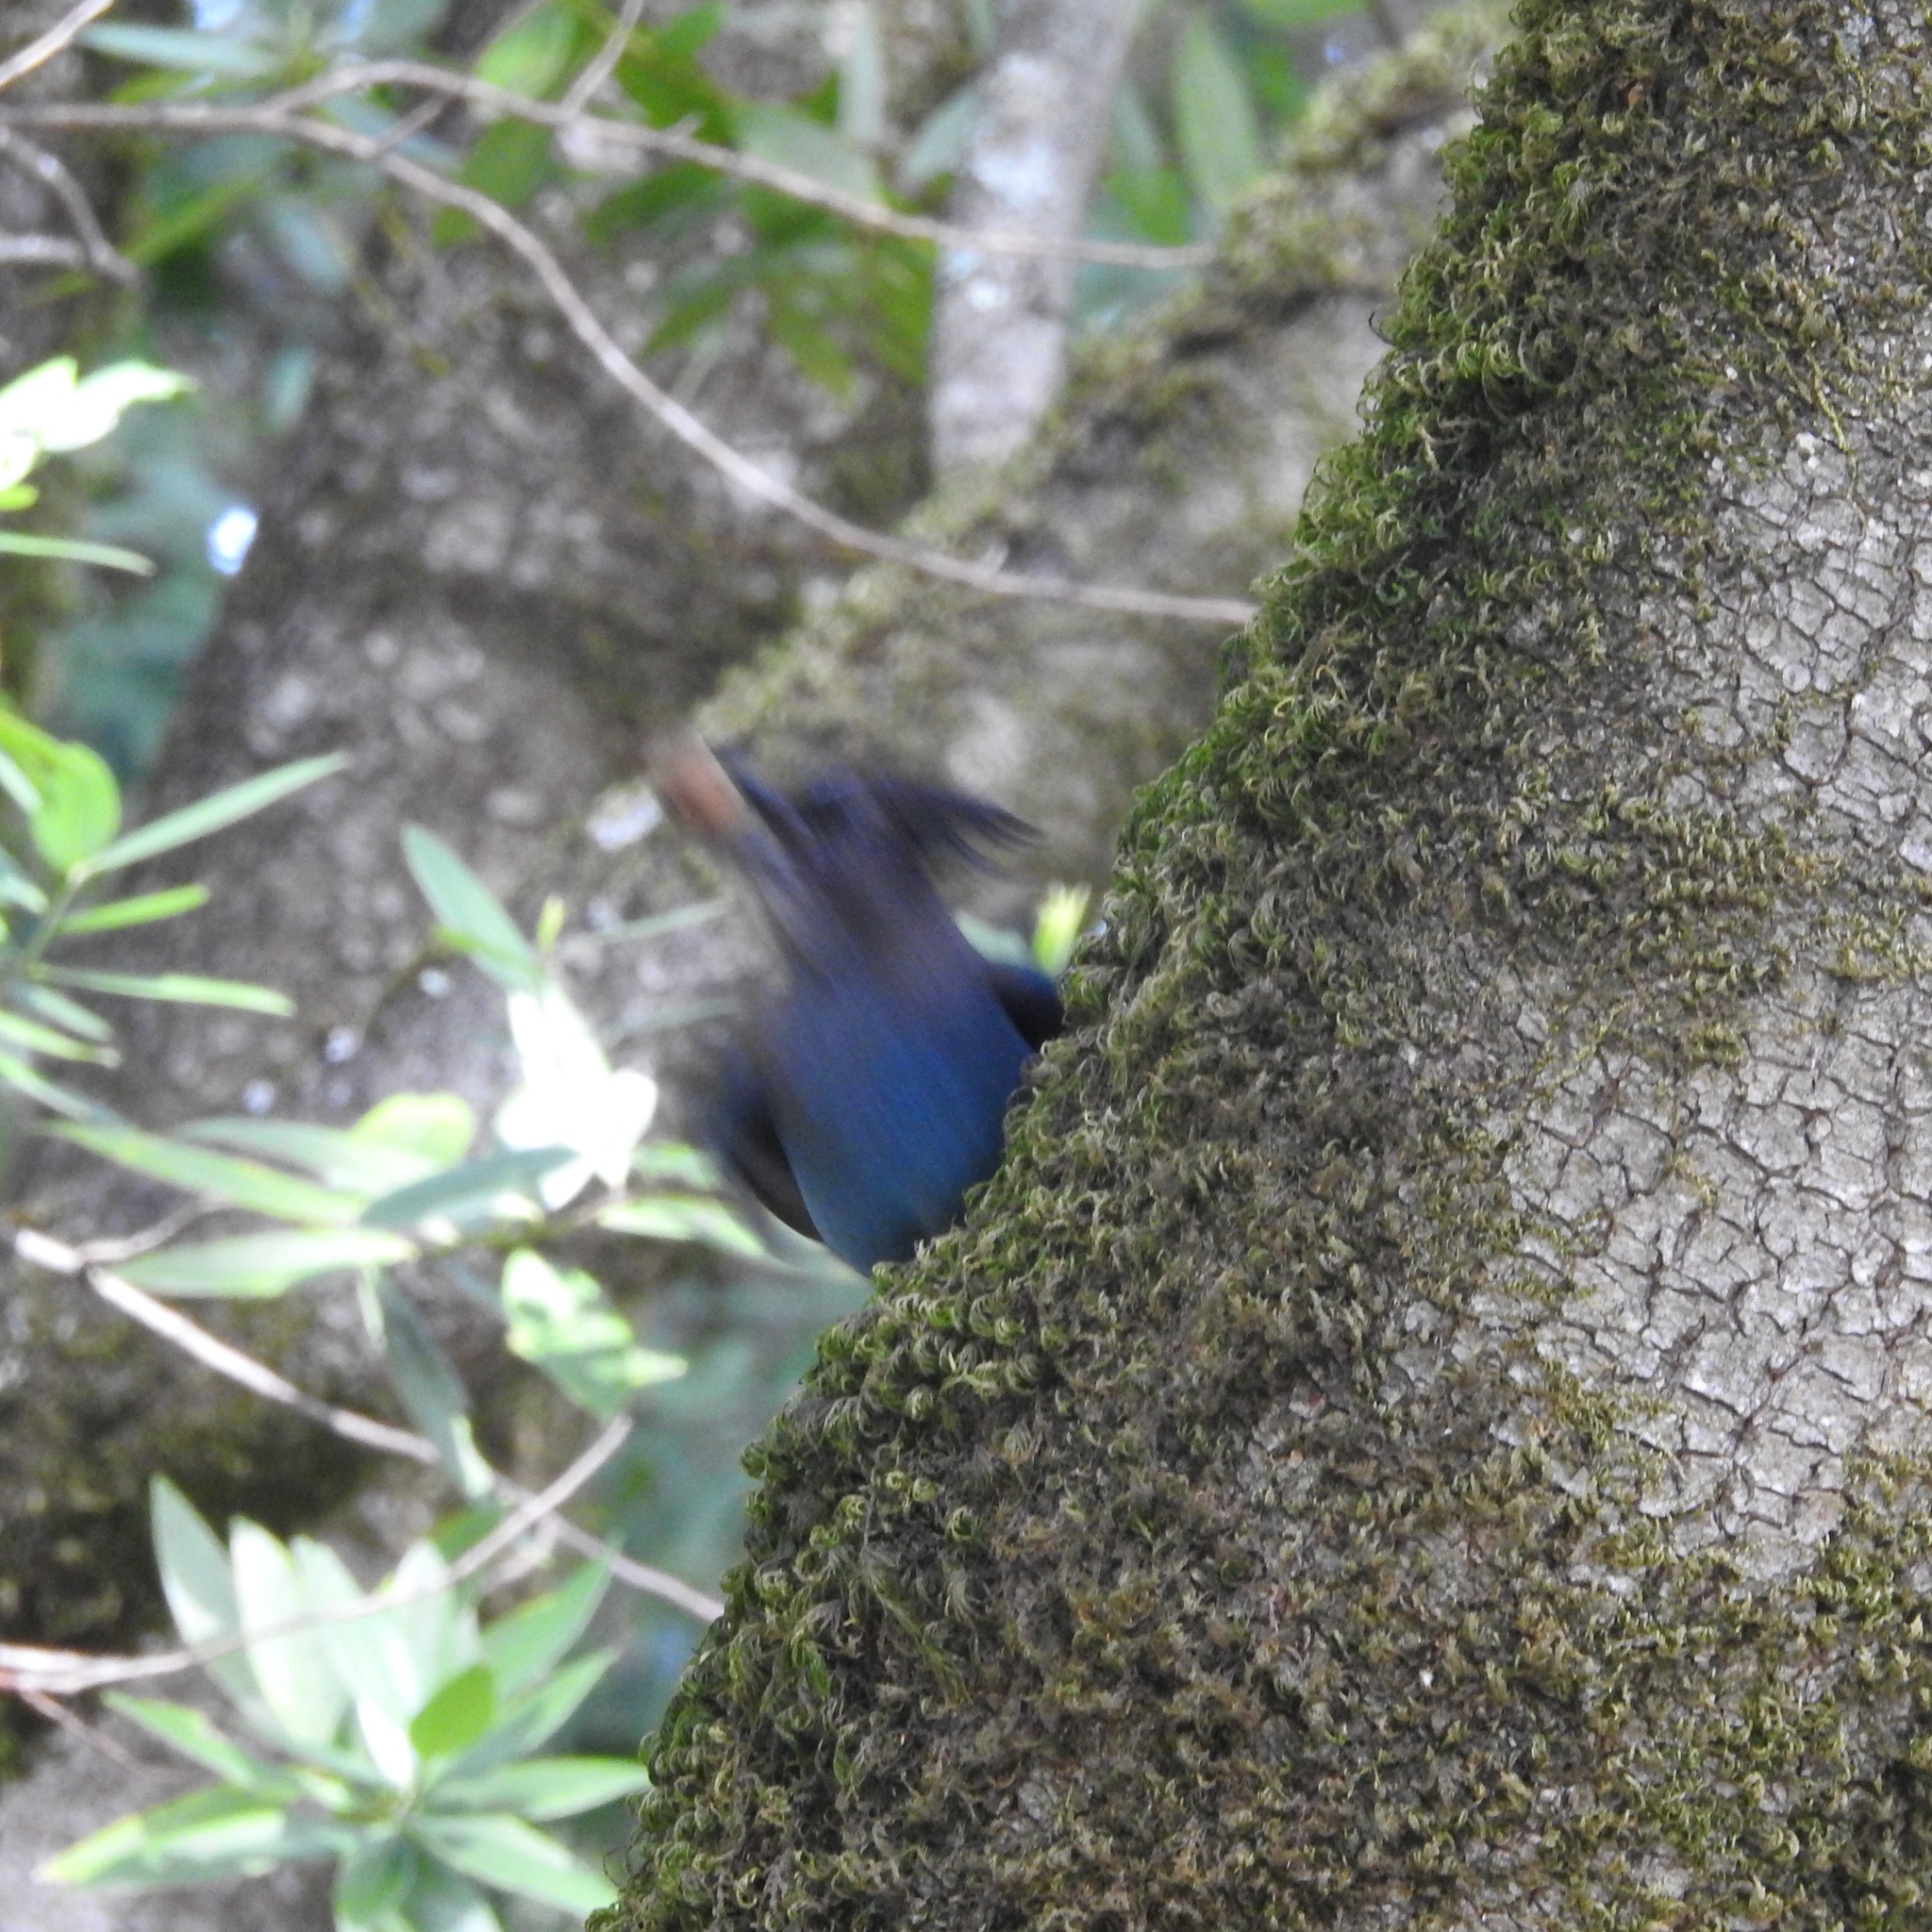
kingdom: Plantae
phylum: Tracheophyta
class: Magnoliopsida
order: Laurales
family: Lauraceae
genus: Umbellularia
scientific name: Umbellularia californica
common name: California bay
